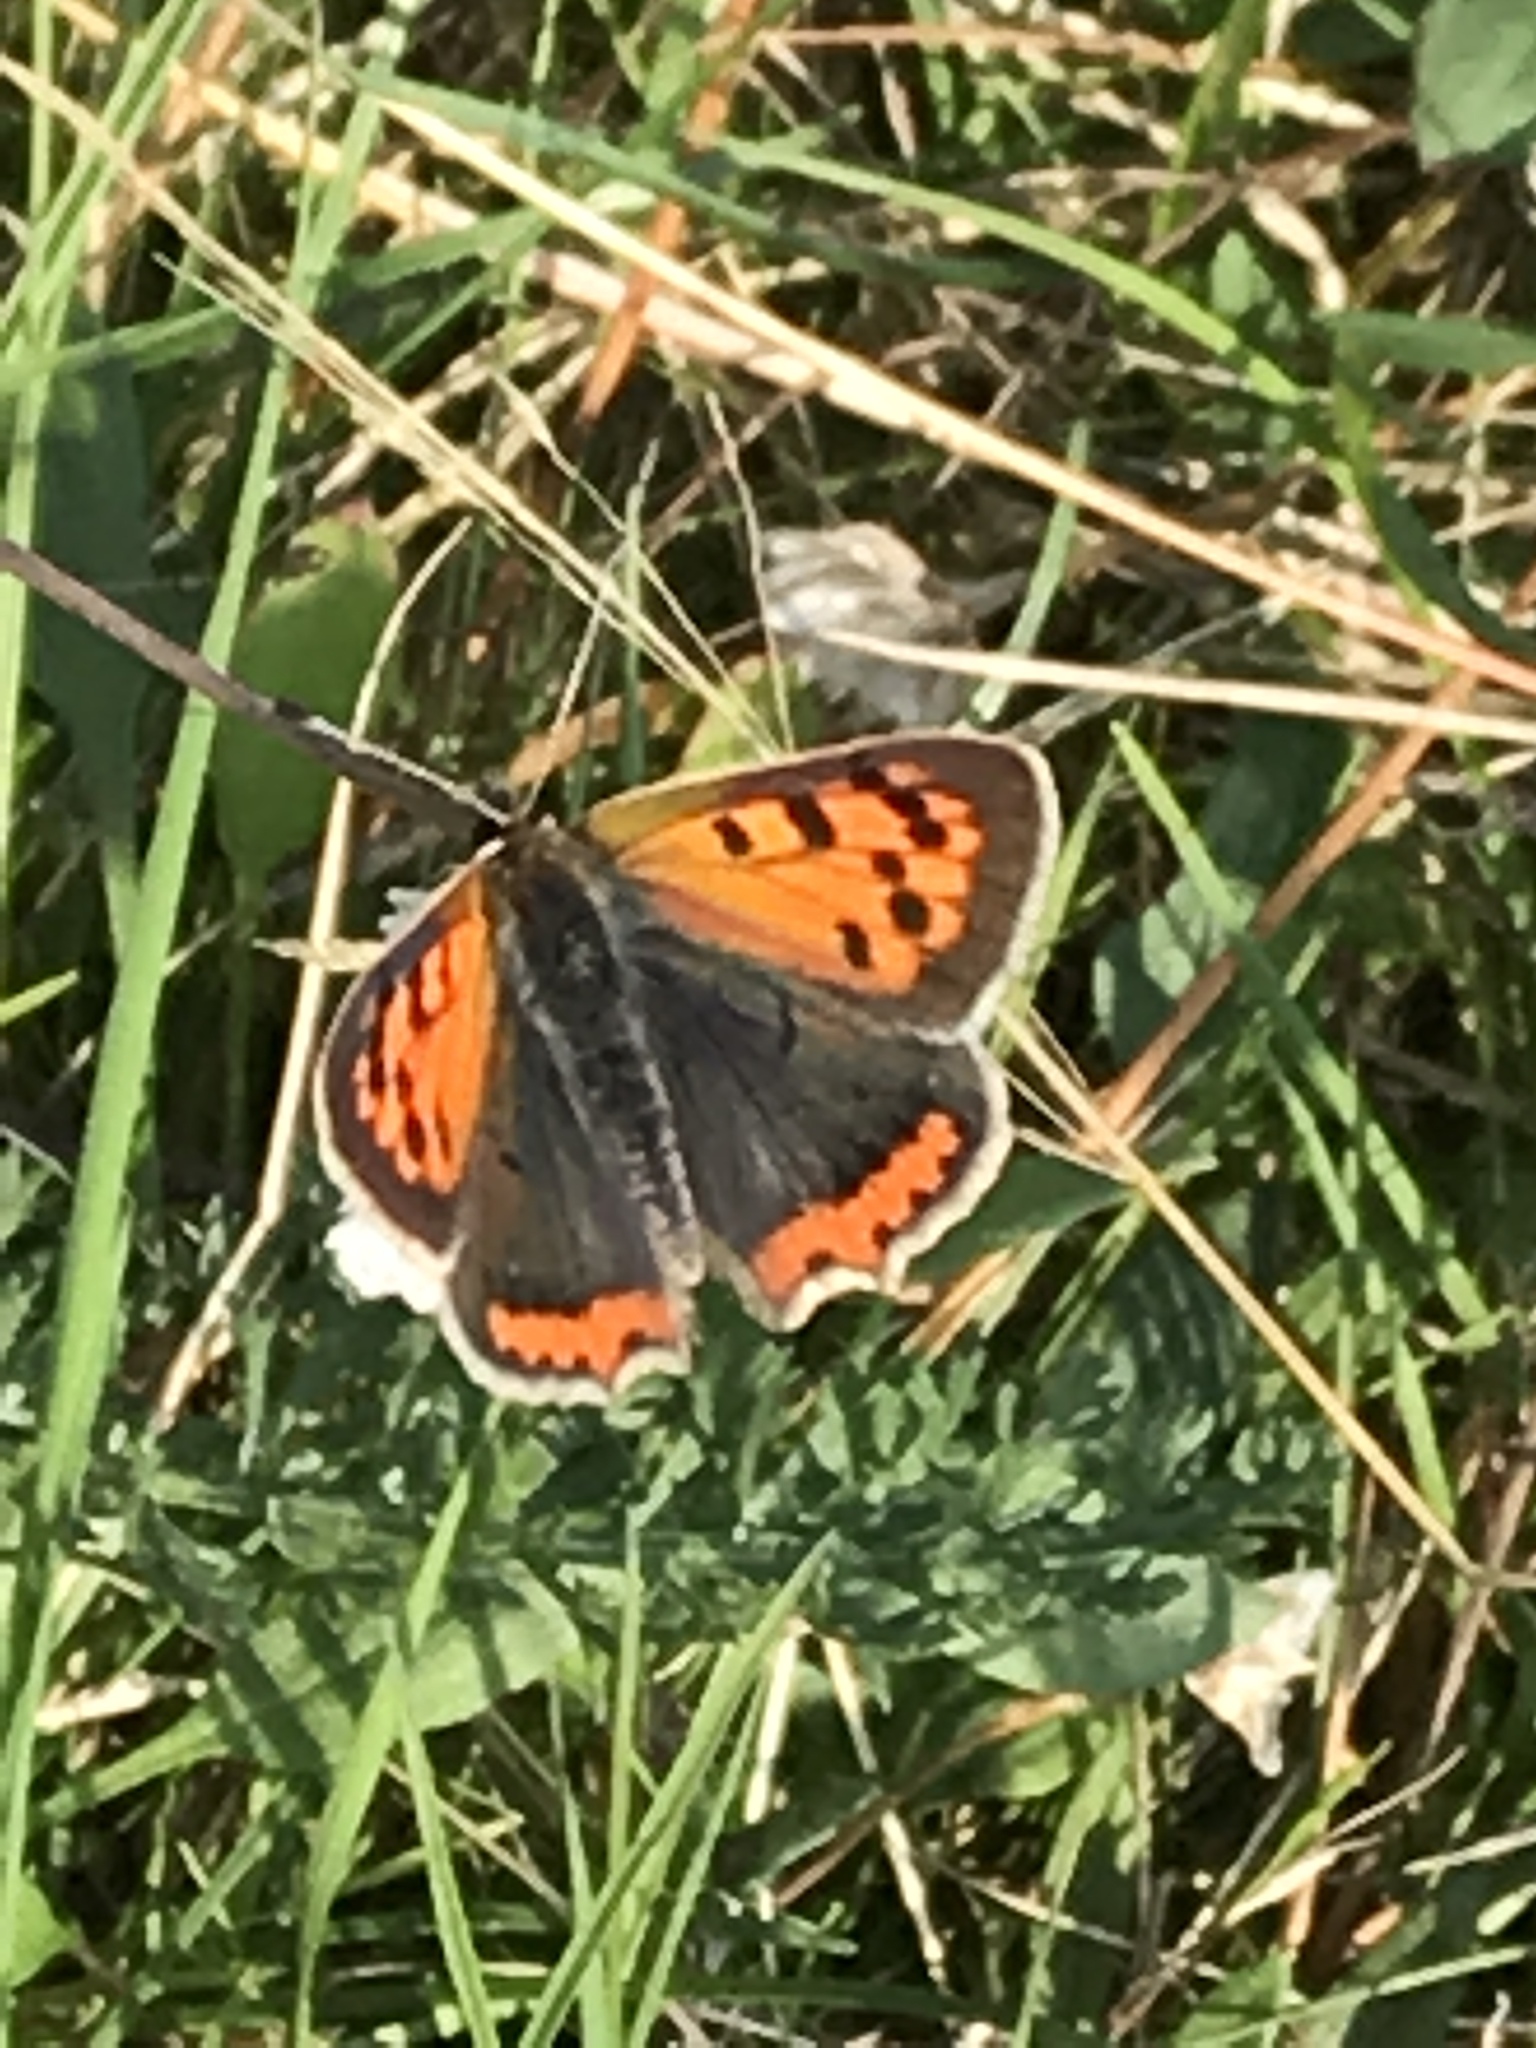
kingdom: Animalia
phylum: Arthropoda
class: Insecta
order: Lepidoptera
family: Lycaenidae
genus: Lycaena
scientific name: Lycaena phlaeas
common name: Small copper
